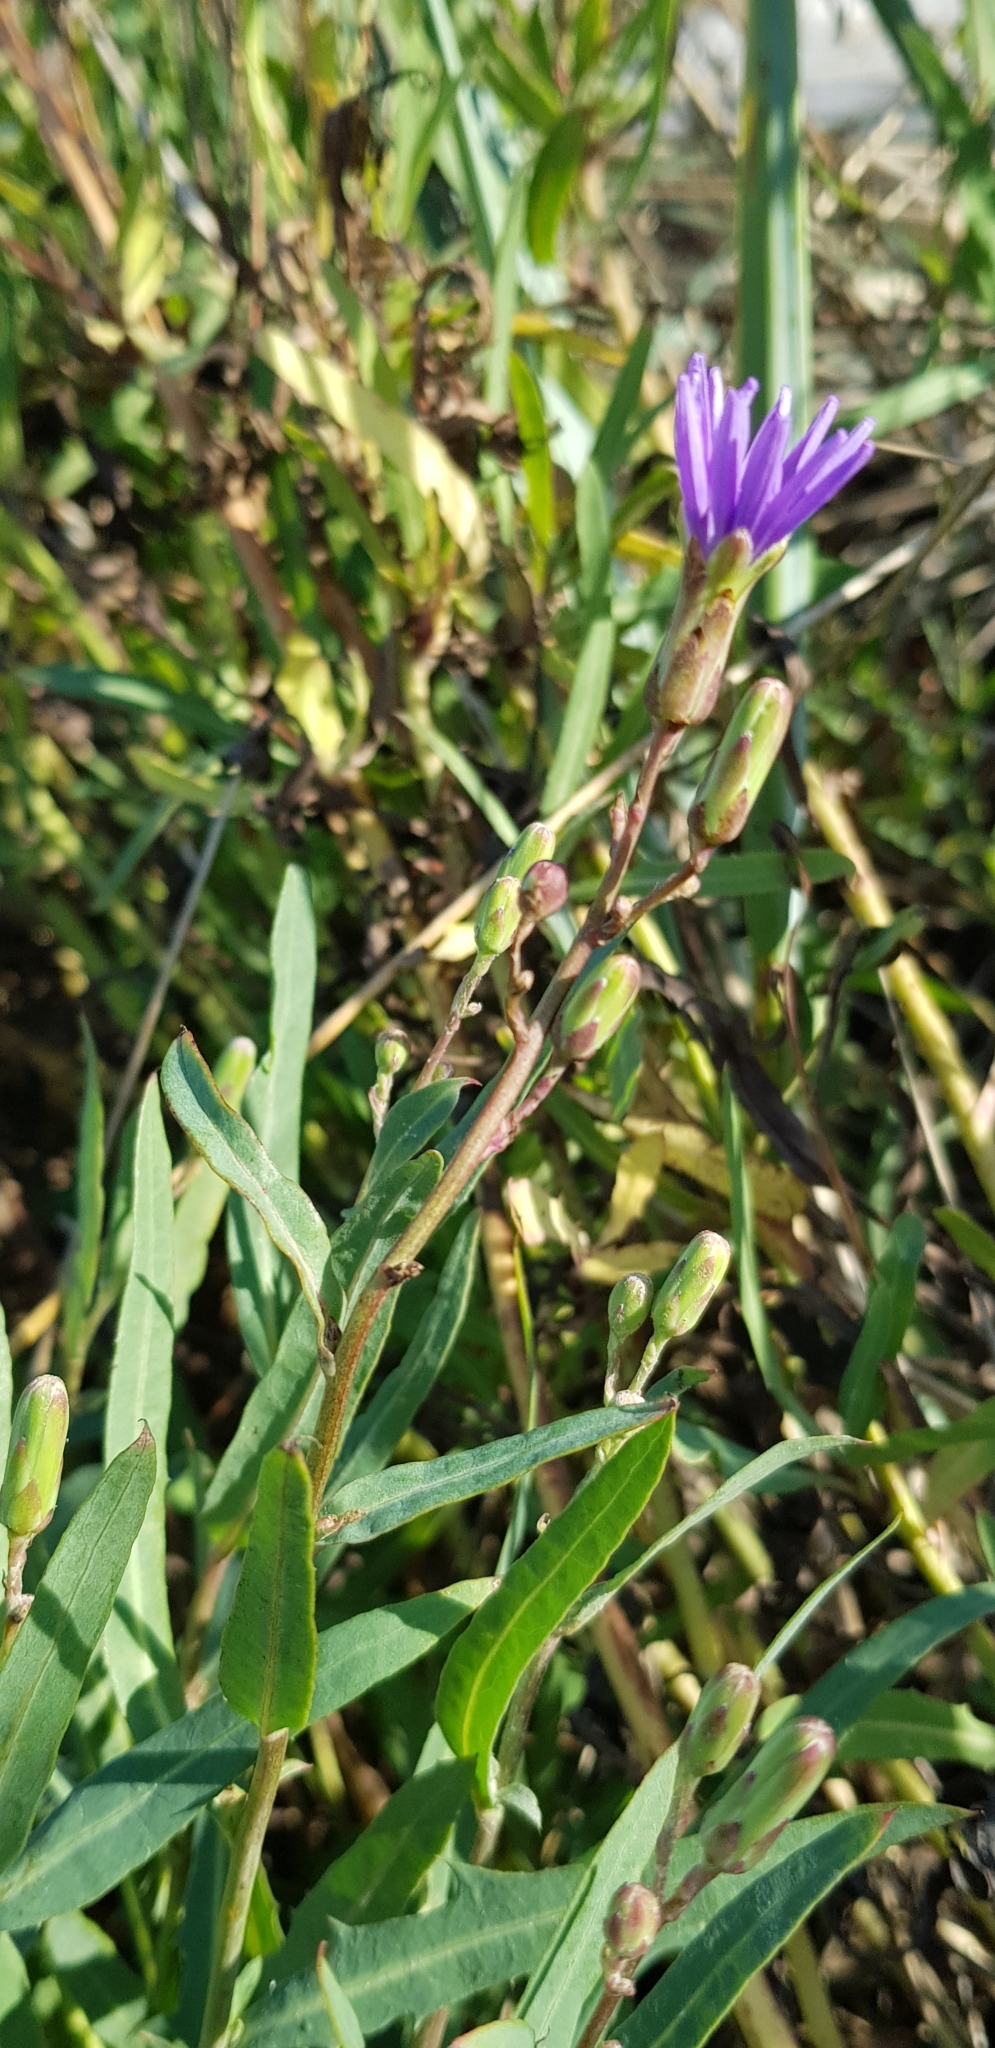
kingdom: Plantae
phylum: Tracheophyta
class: Magnoliopsida
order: Asterales
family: Asteraceae
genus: Lactuca
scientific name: Lactuca tatarica
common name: Blue lettuce
